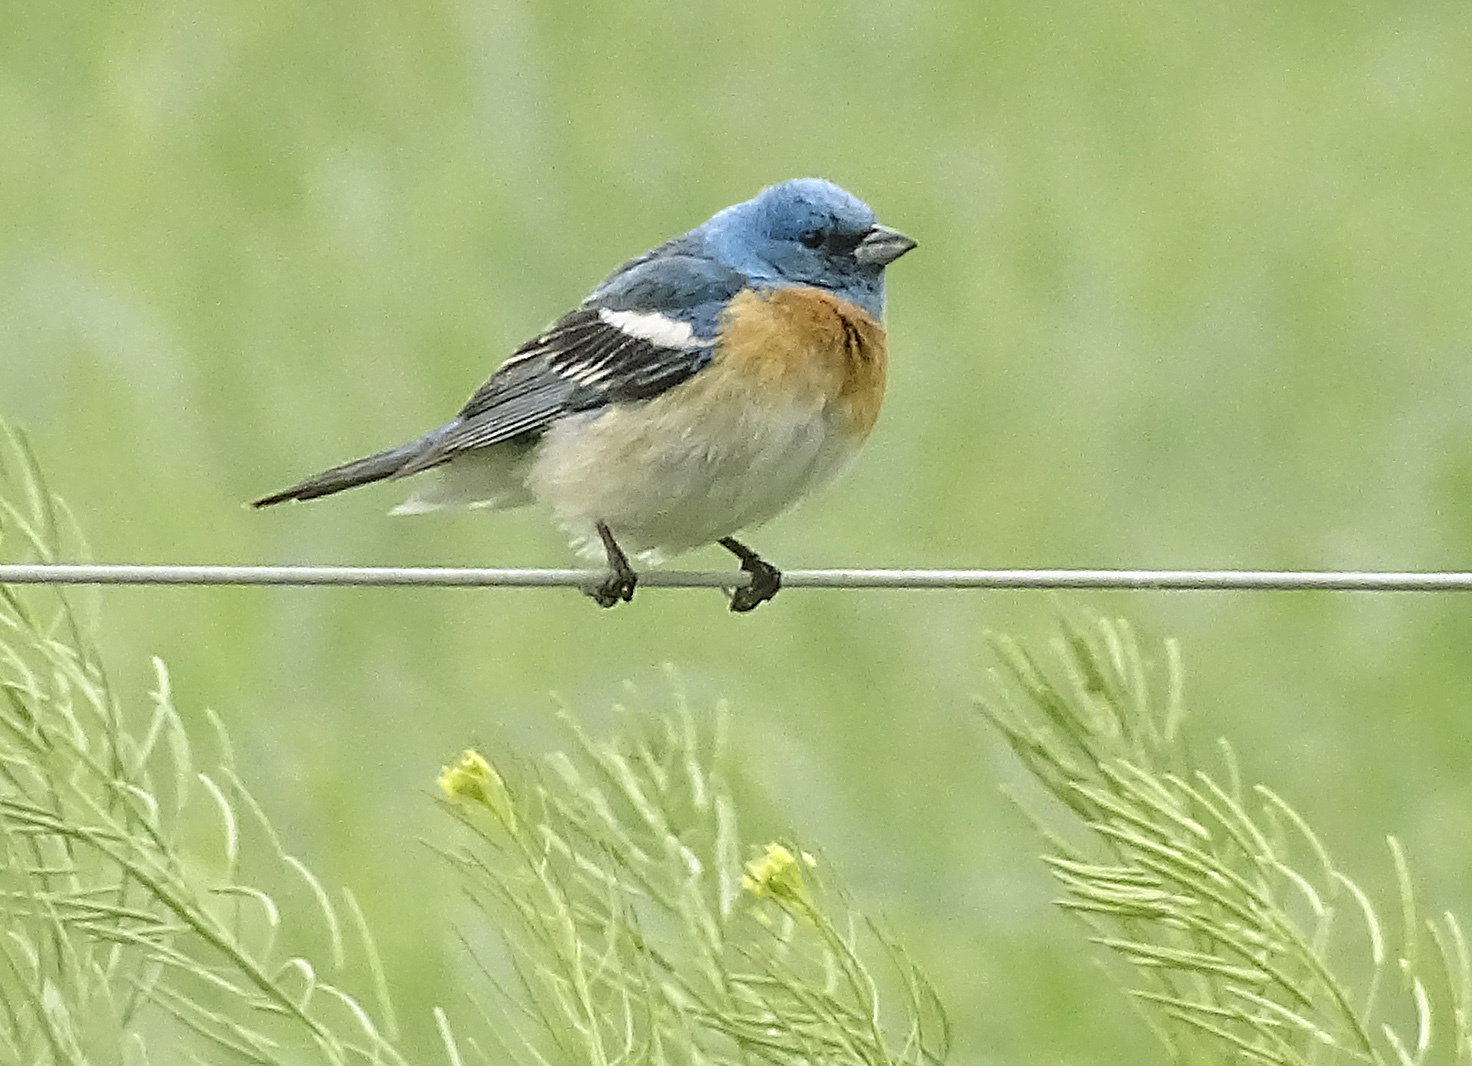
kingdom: Animalia
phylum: Chordata
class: Aves
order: Passeriformes
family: Cardinalidae
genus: Passerina
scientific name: Passerina amoena
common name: Lazuli bunting
